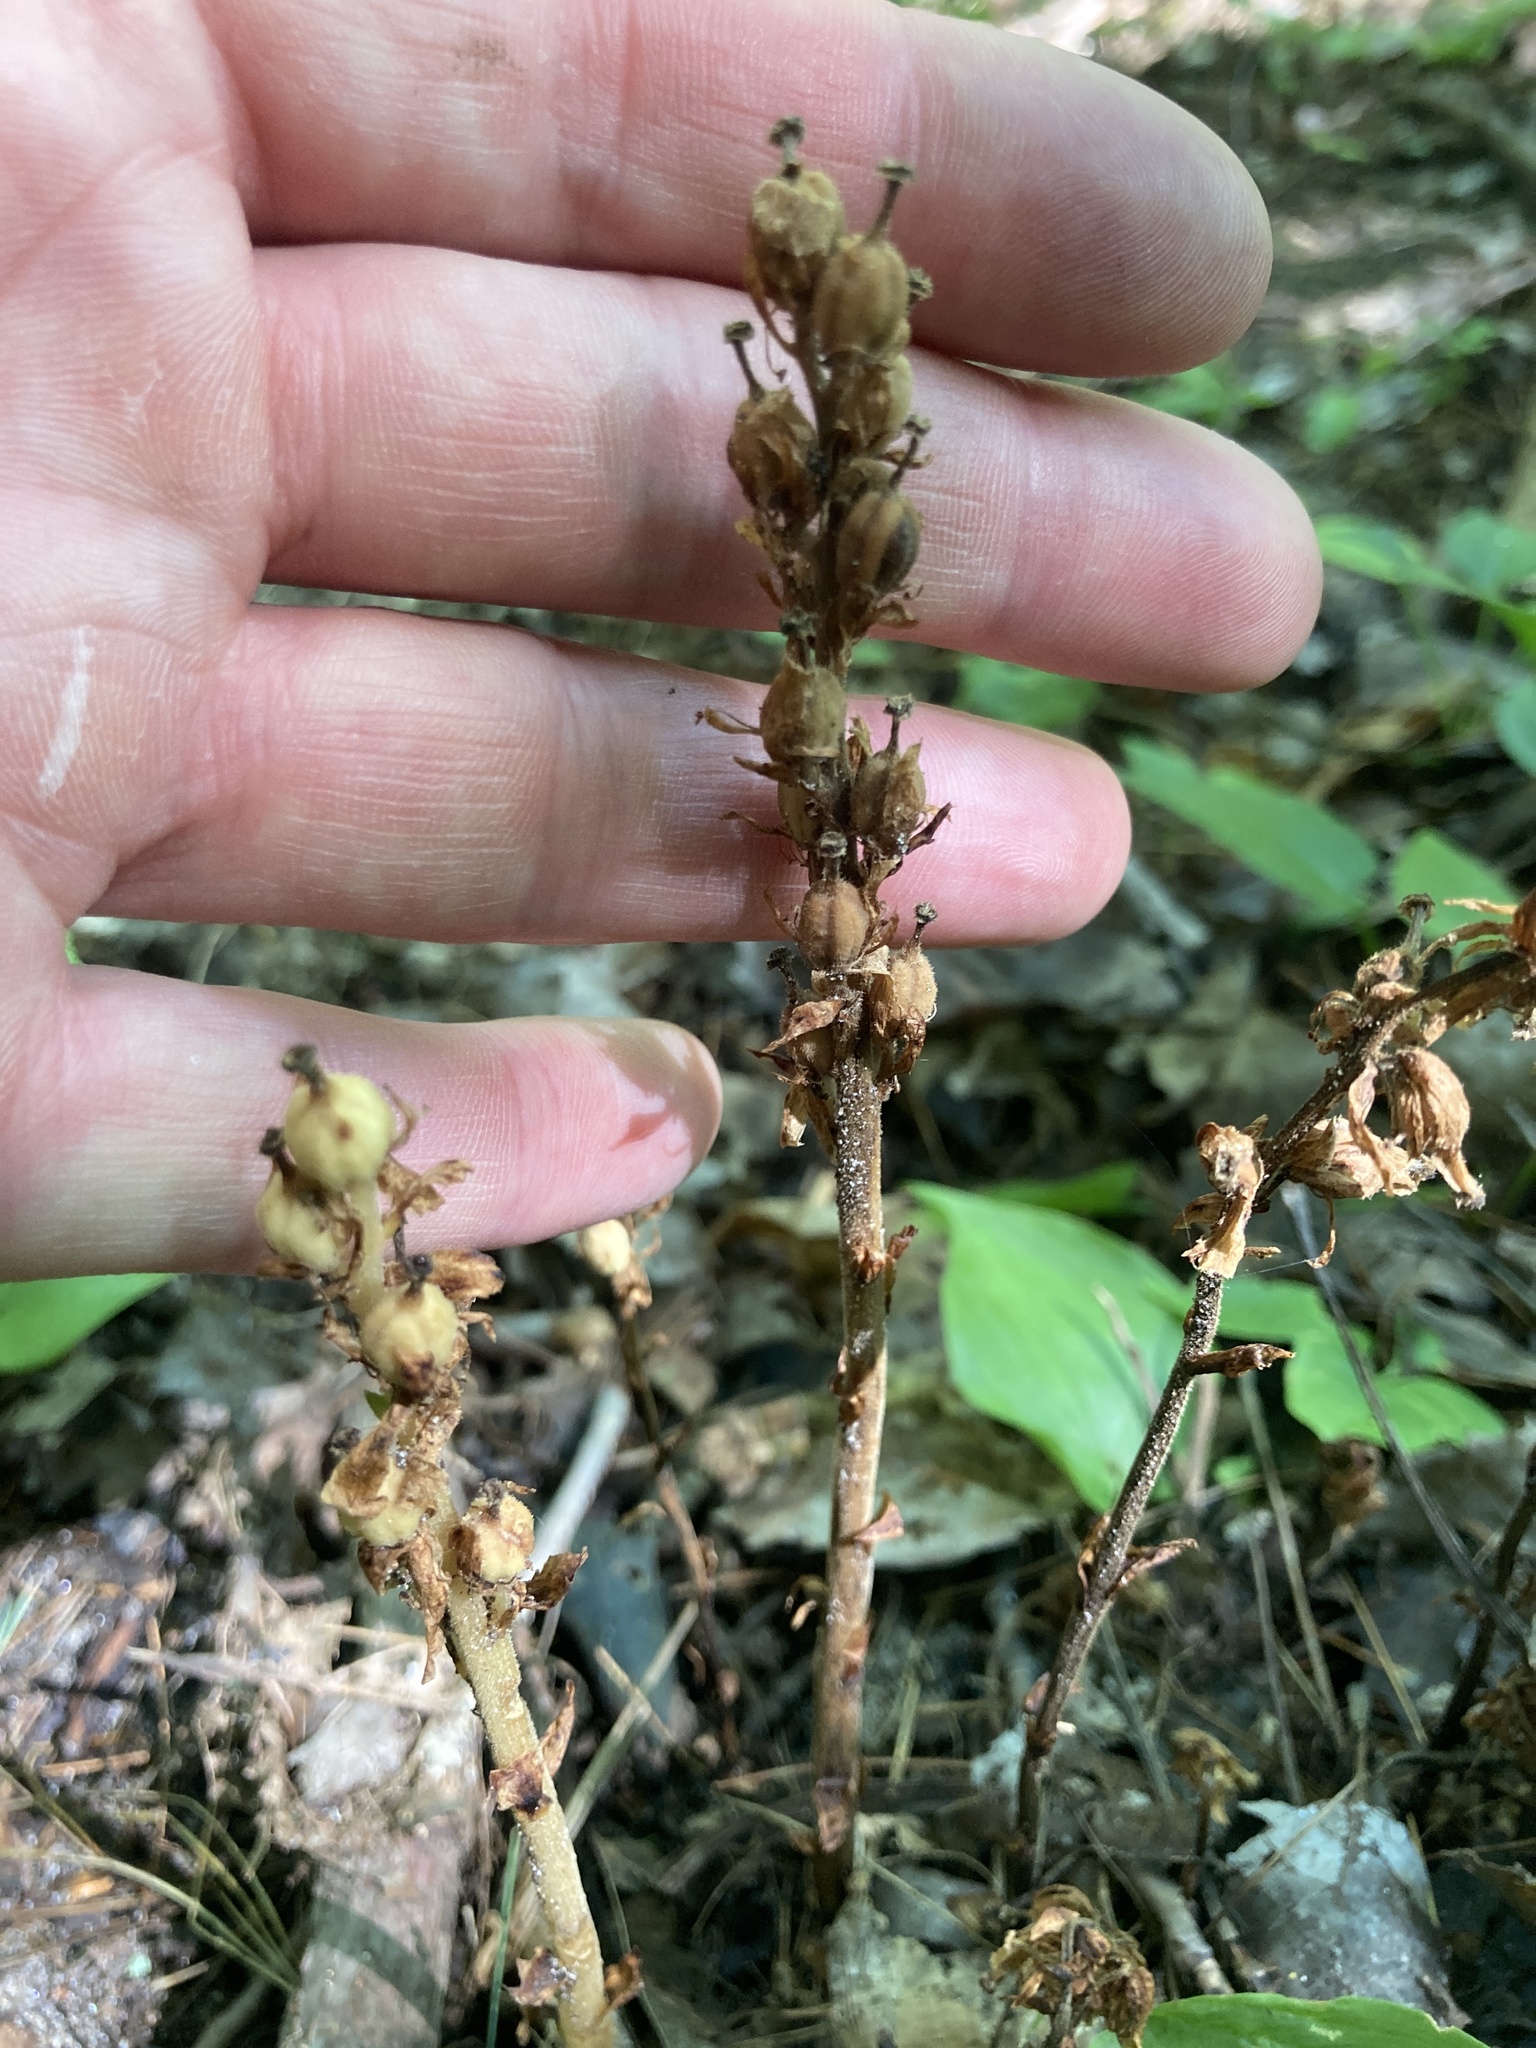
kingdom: Plantae
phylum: Tracheophyta
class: Magnoliopsida
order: Ericales
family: Ericaceae
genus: Hypopitys
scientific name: Hypopitys monotropa
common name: Yellow bird's-nest
